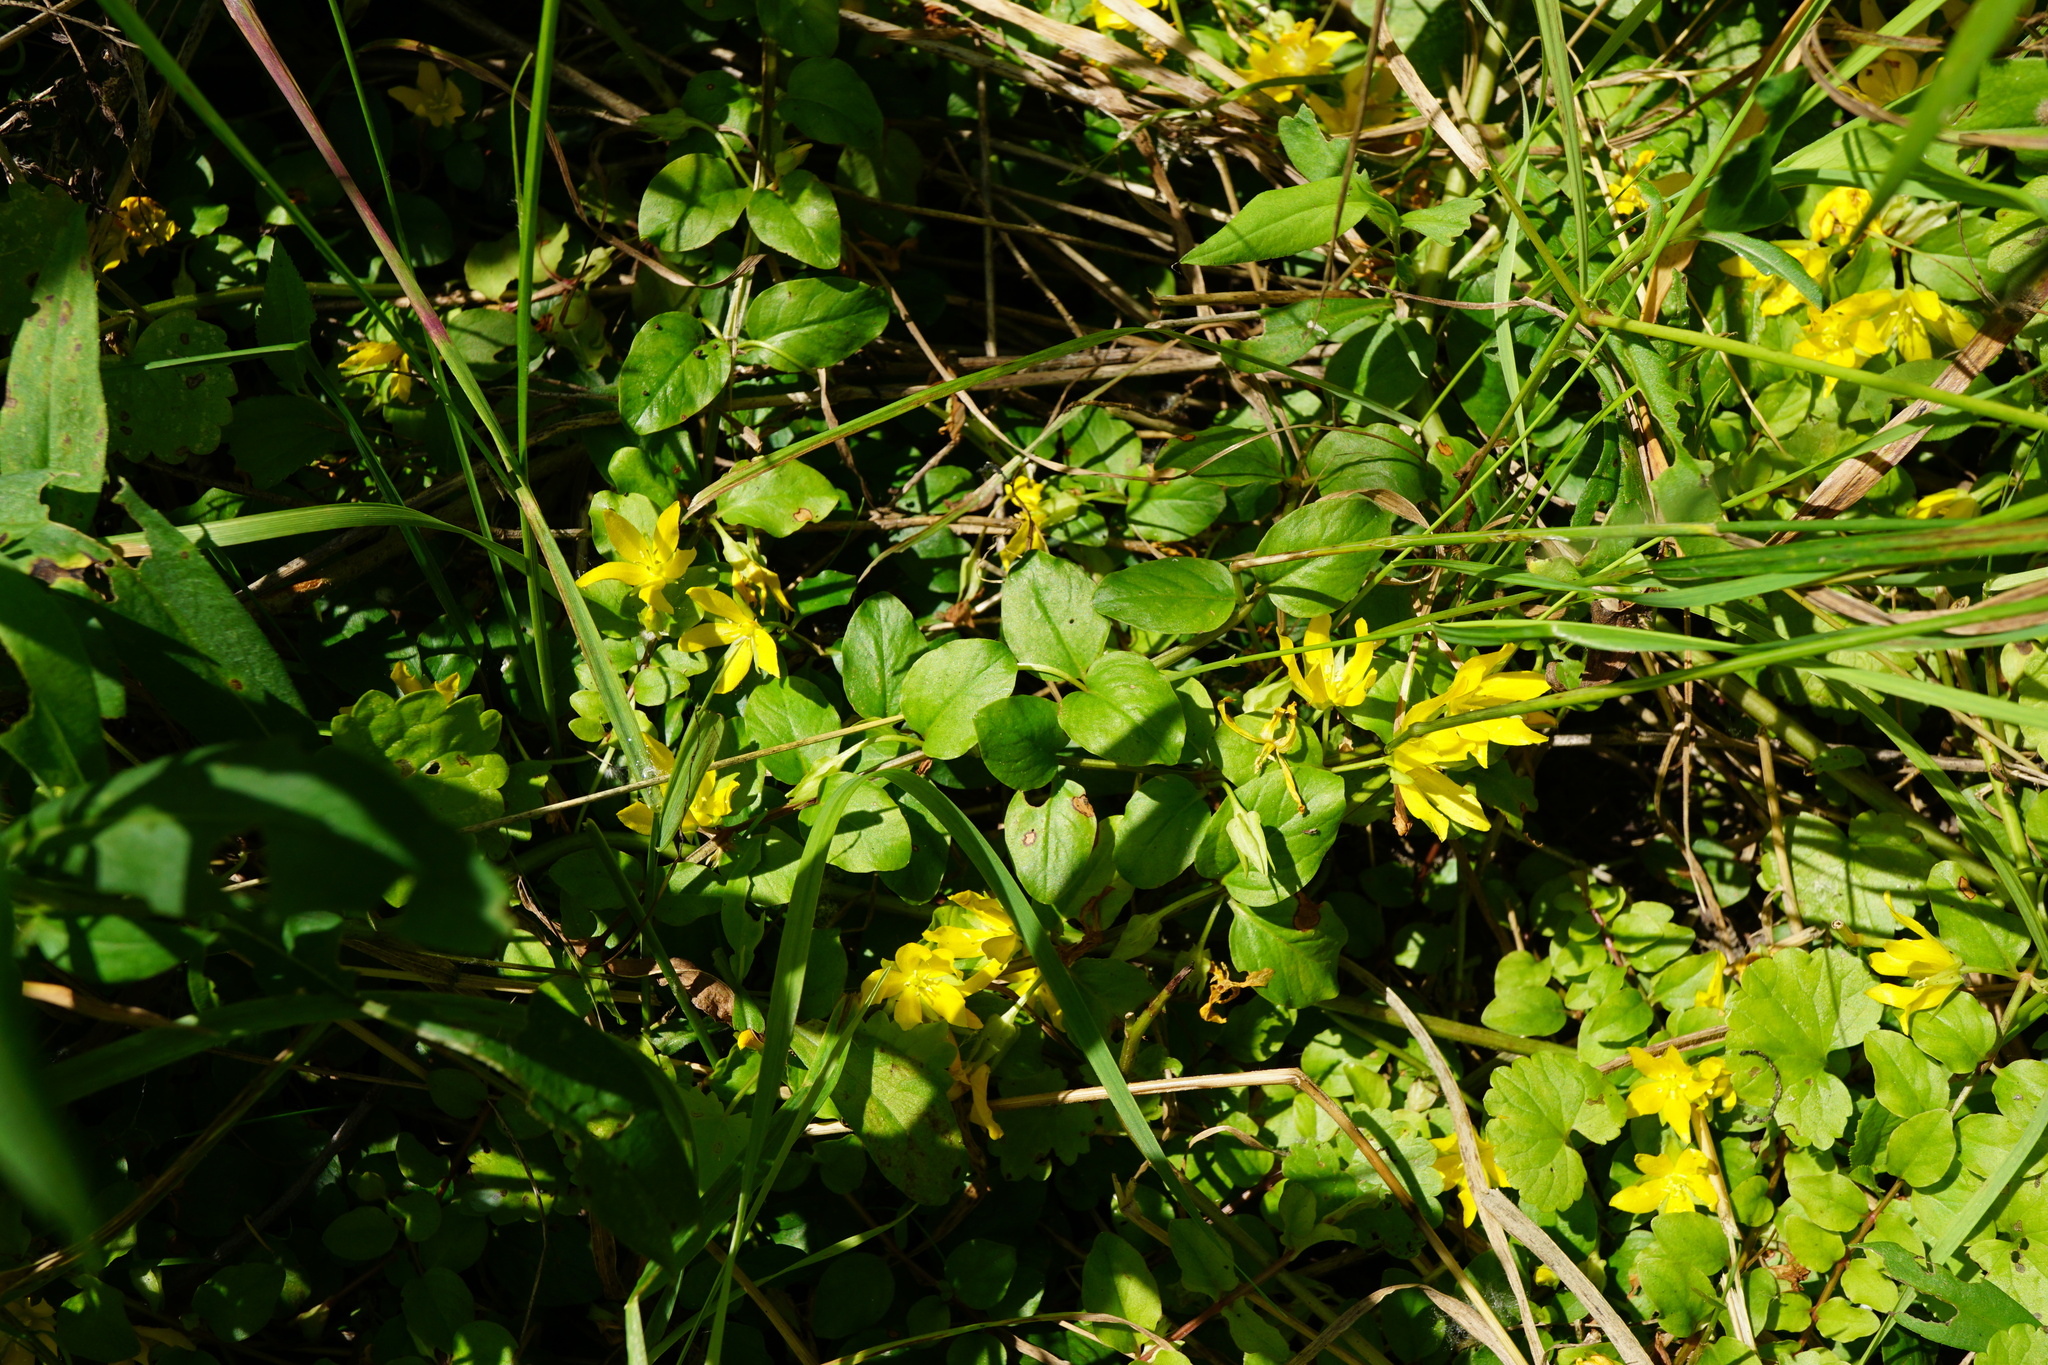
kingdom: Plantae
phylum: Tracheophyta
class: Magnoliopsida
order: Ericales
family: Primulaceae
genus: Lysimachia
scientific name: Lysimachia nummularia
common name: Moneywort
